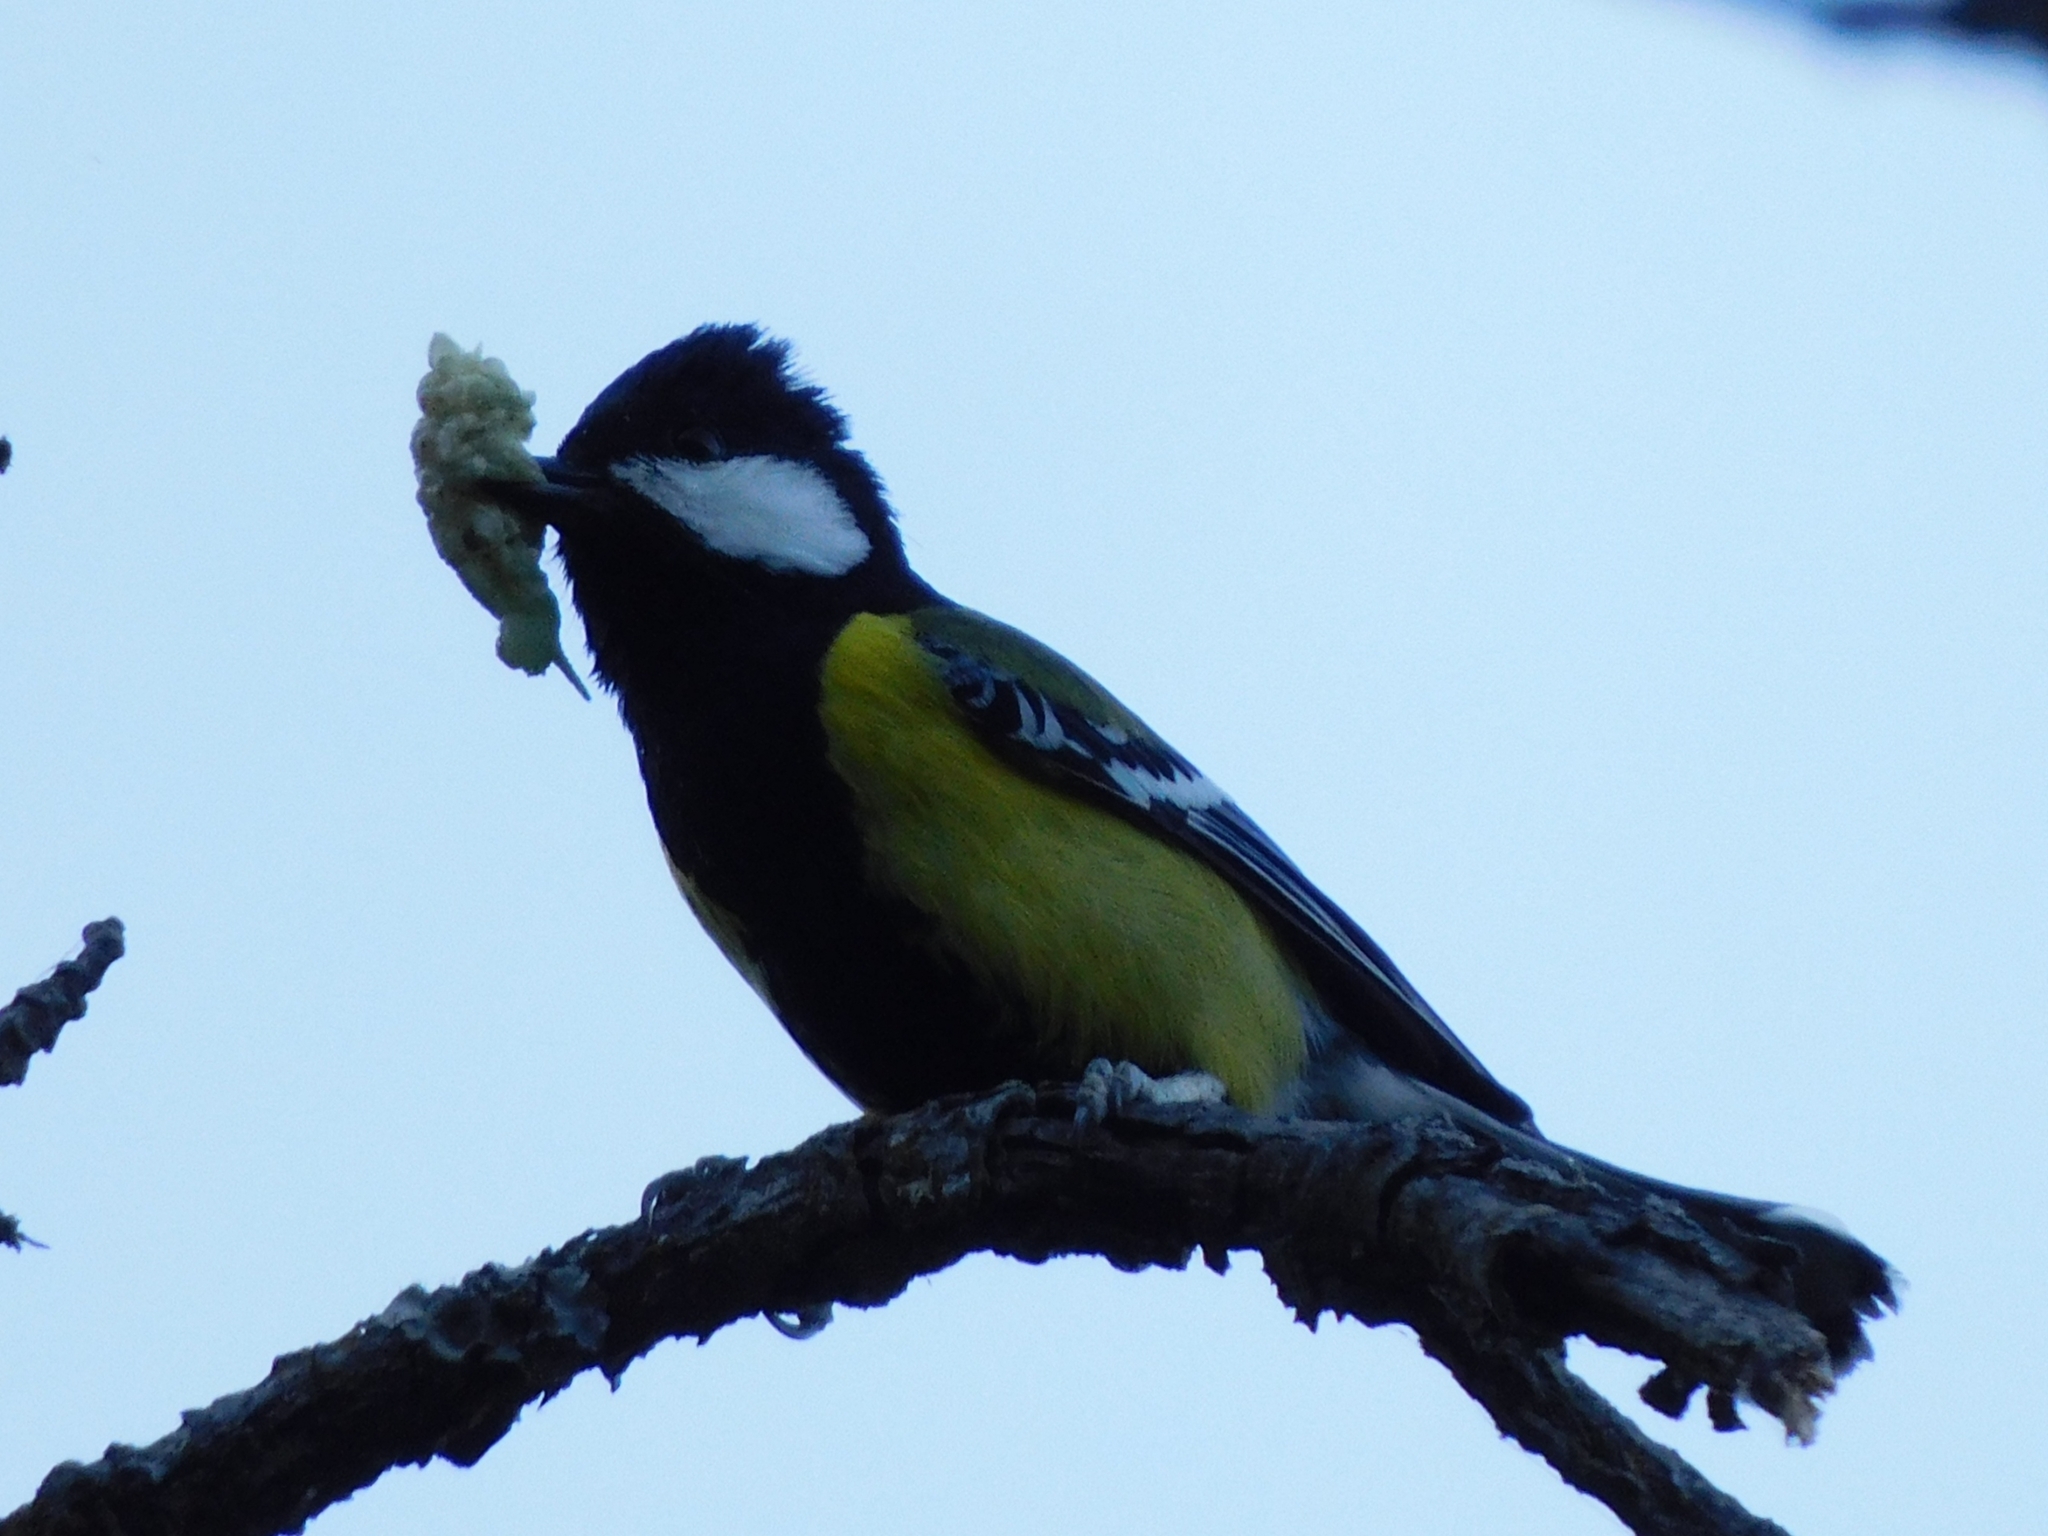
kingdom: Animalia
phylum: Chordata
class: Aves
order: Passeriformes
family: Paridae
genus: Parus
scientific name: Parus monticolus
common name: Green-backed tit
